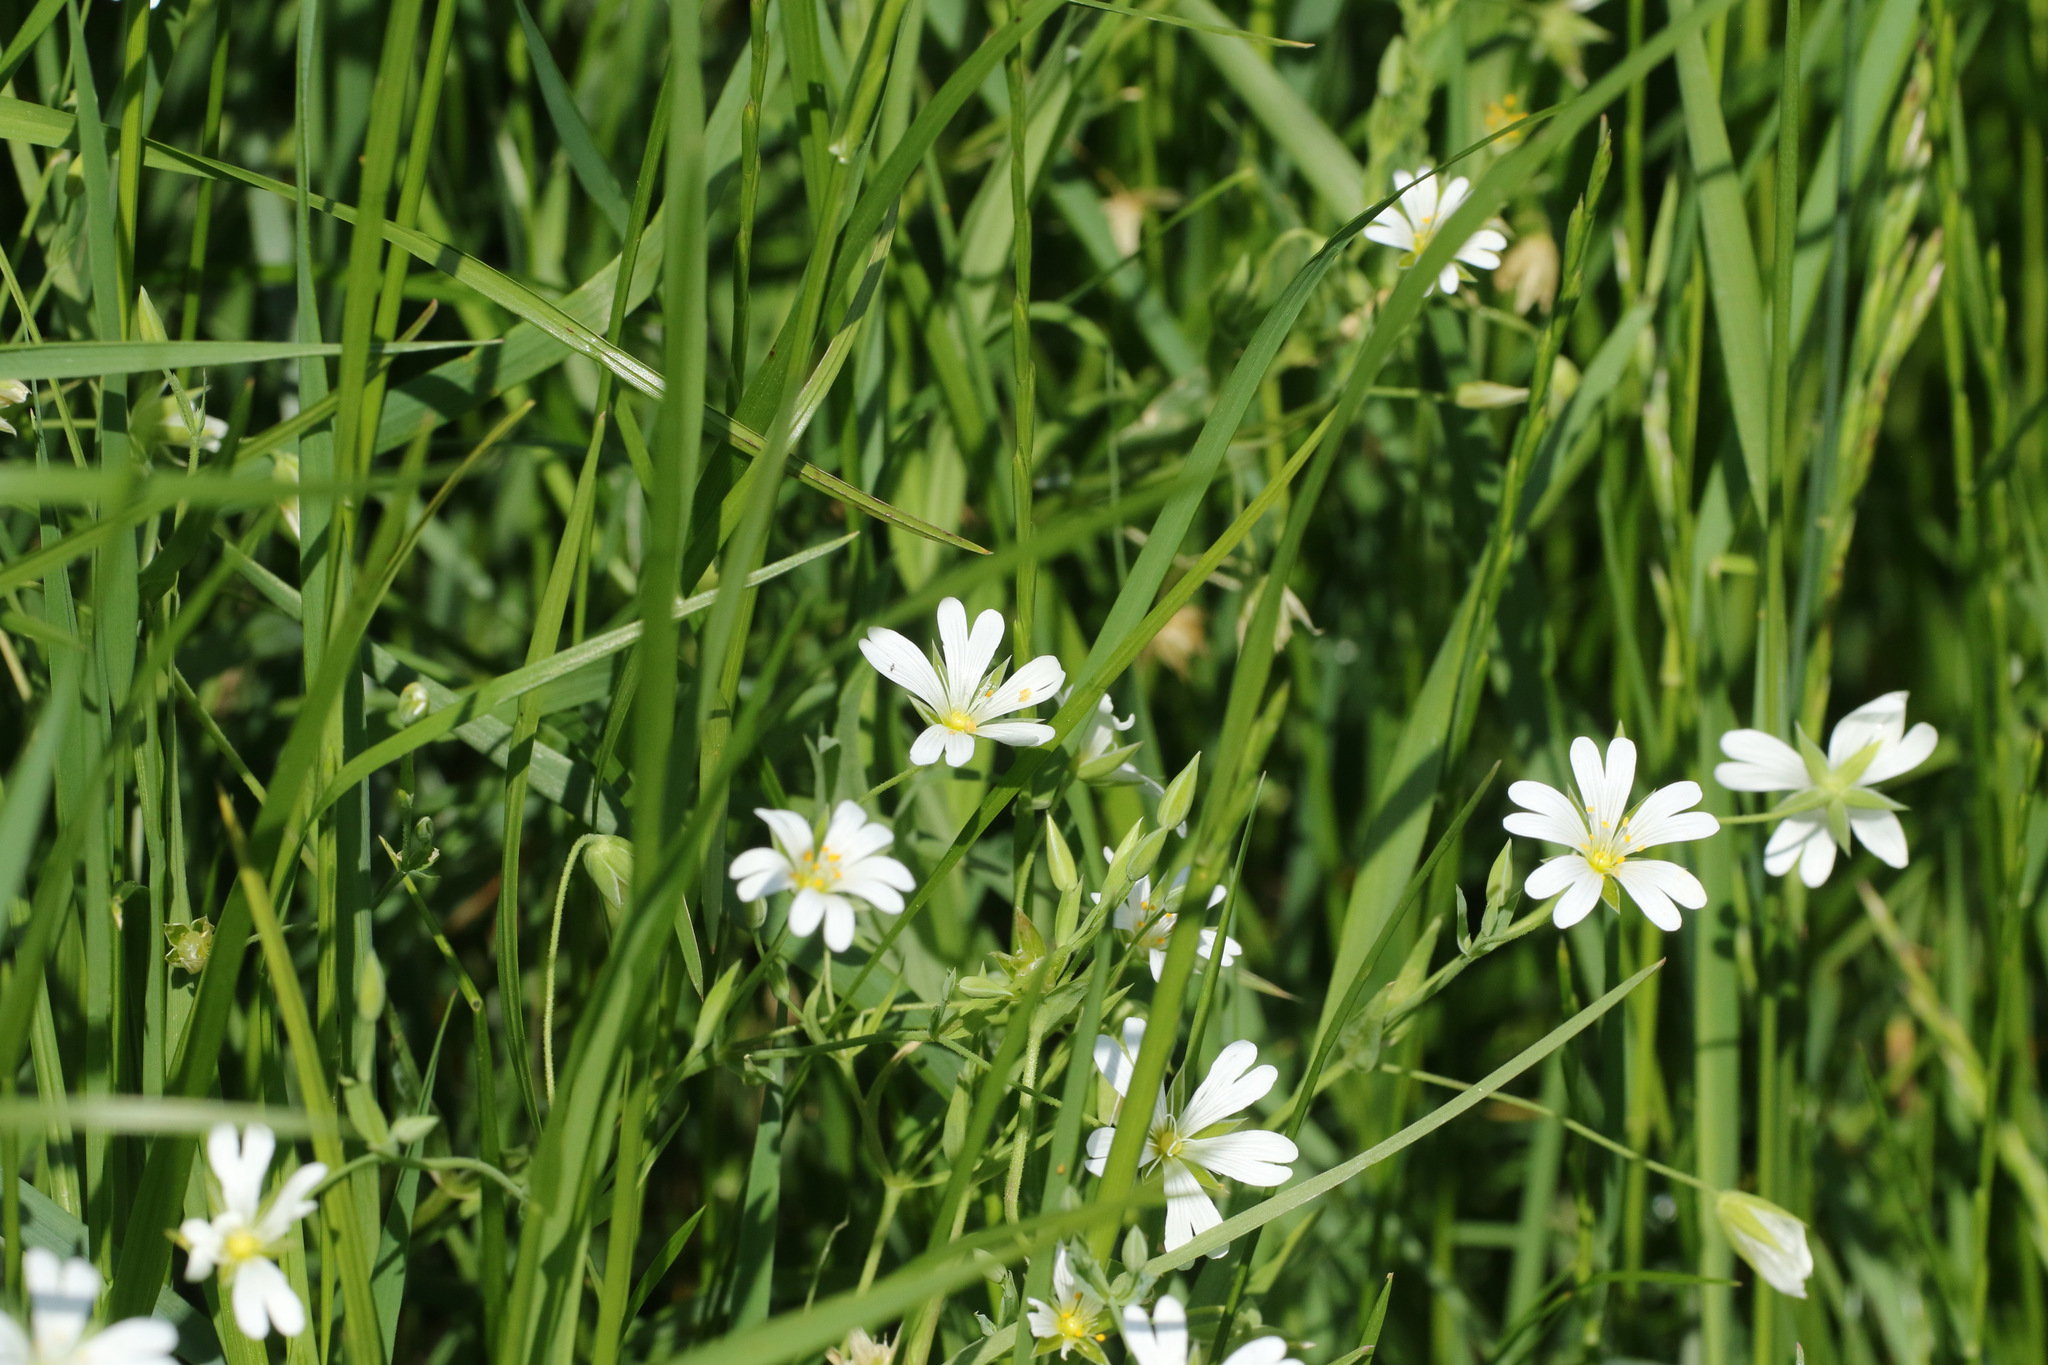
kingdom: Plantae
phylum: Tracheophyta
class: Magnoliopsida
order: Caryophyllales
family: Caryophyllaceae
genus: Rabelera
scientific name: Rabelera holostea
